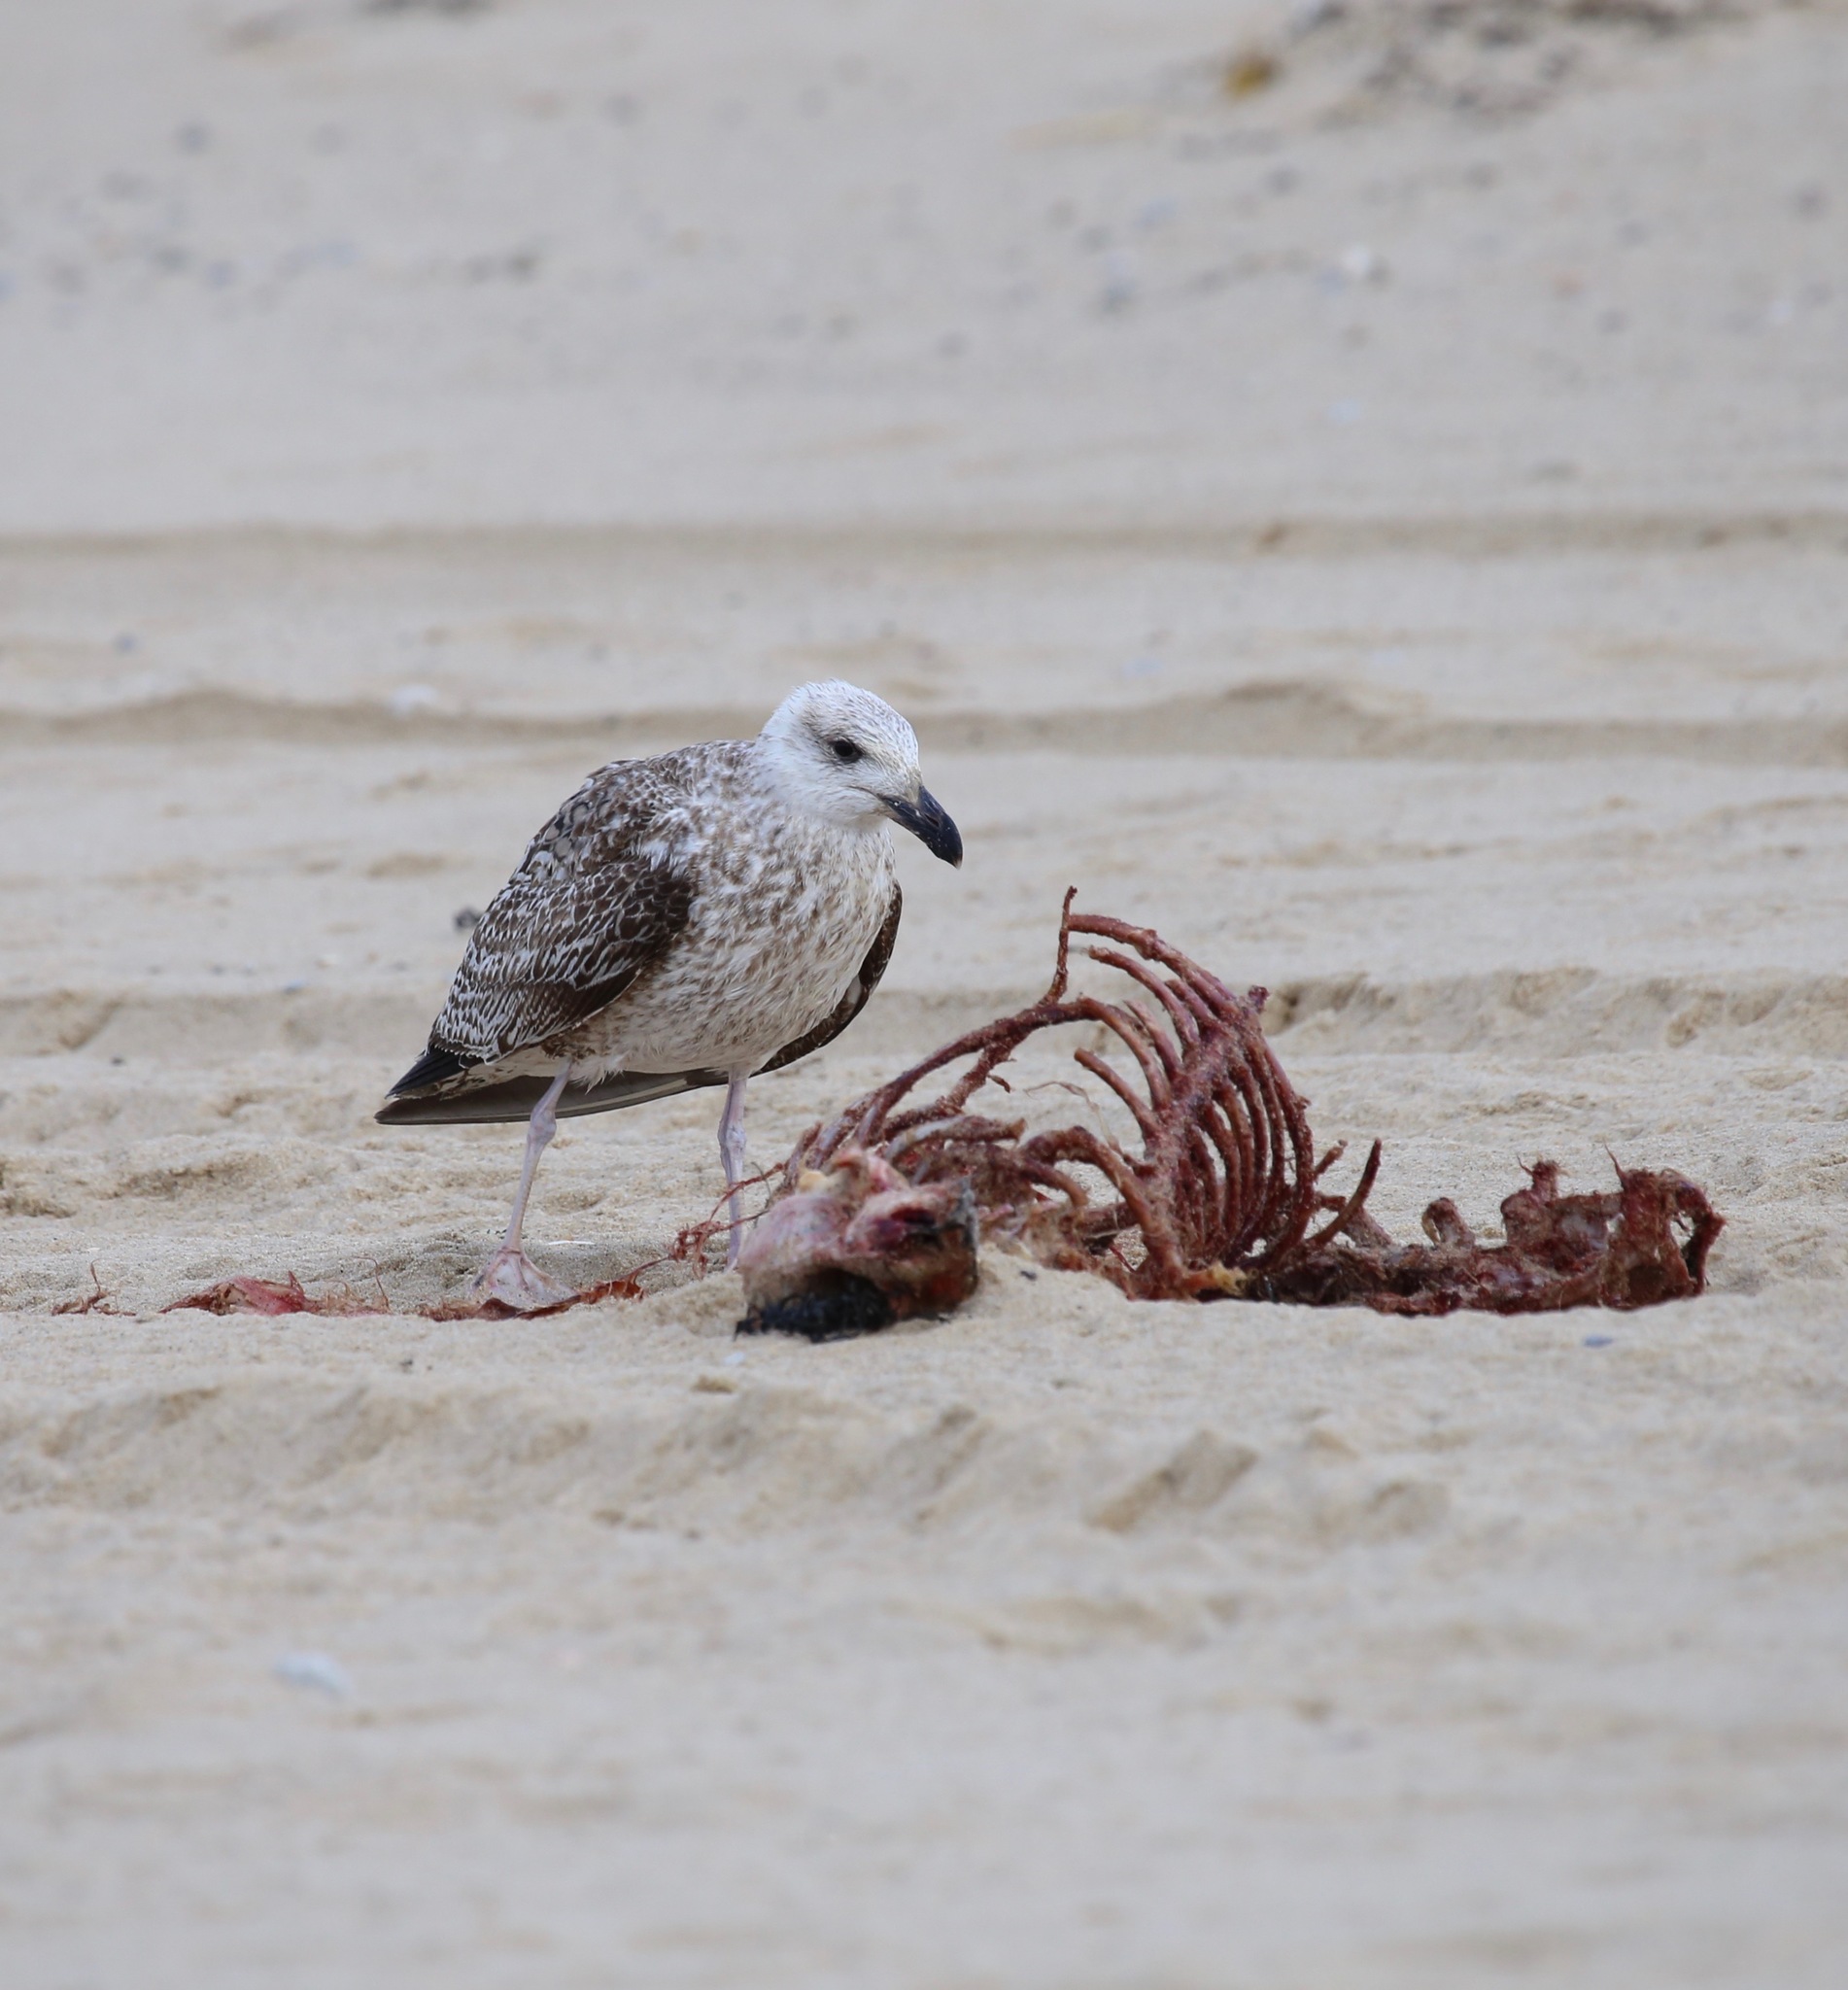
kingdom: Animalia
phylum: Chordata
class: Aves
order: Charadriiformes
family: Laridae
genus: Larus
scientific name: Larus marinus
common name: Great black-backed gull
